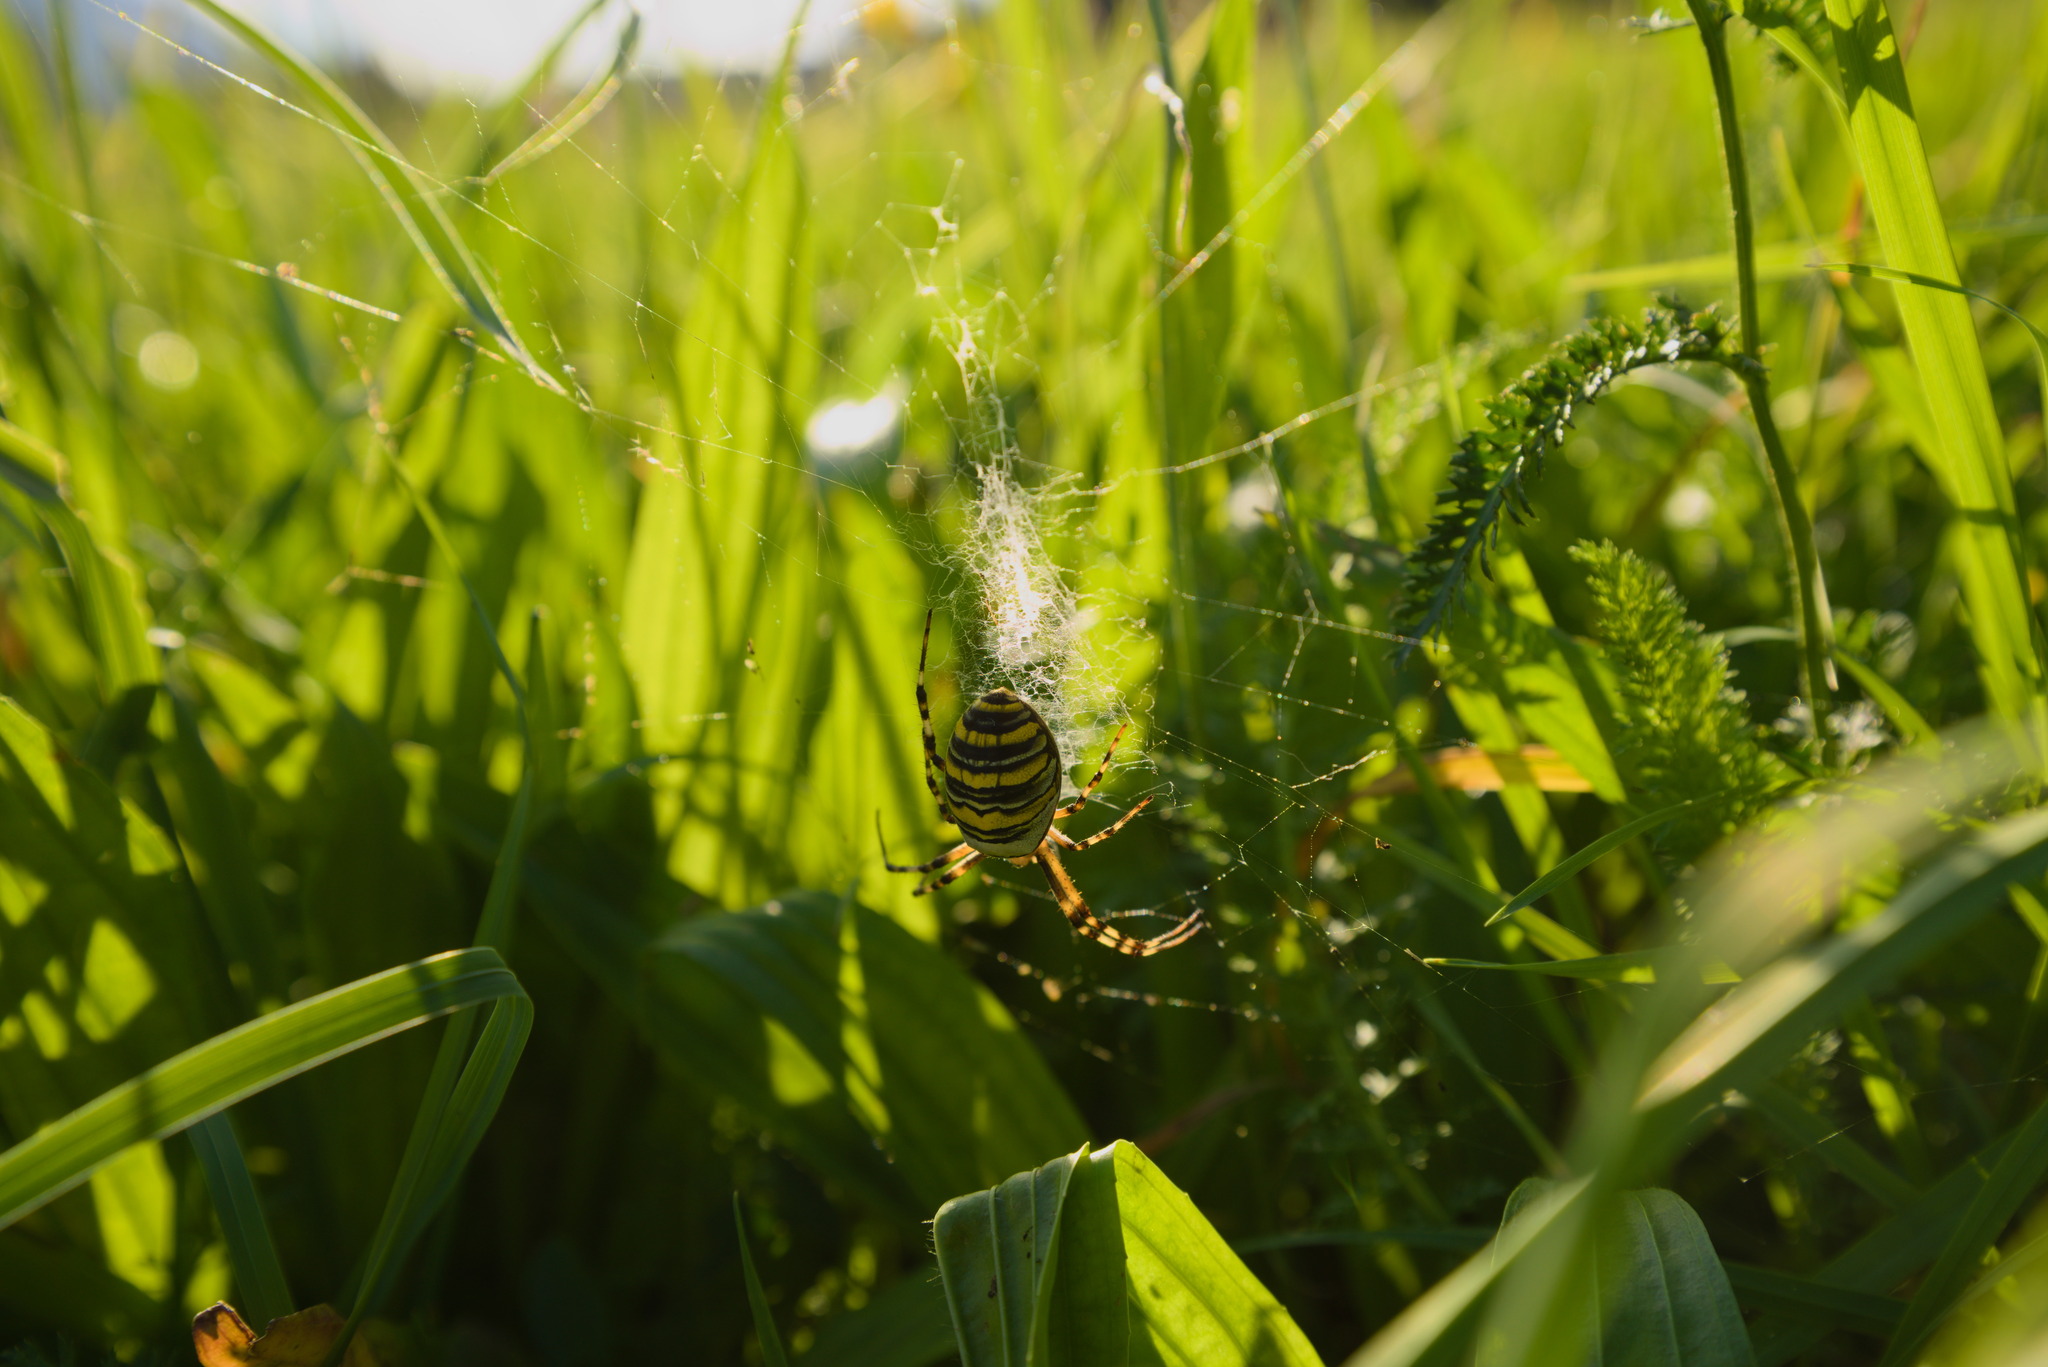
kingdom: Animalia
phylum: Arthropoda
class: Arachnida
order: Araneae
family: Araneidae
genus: Argiope
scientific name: Argiope bruennichi
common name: Wasp spider
